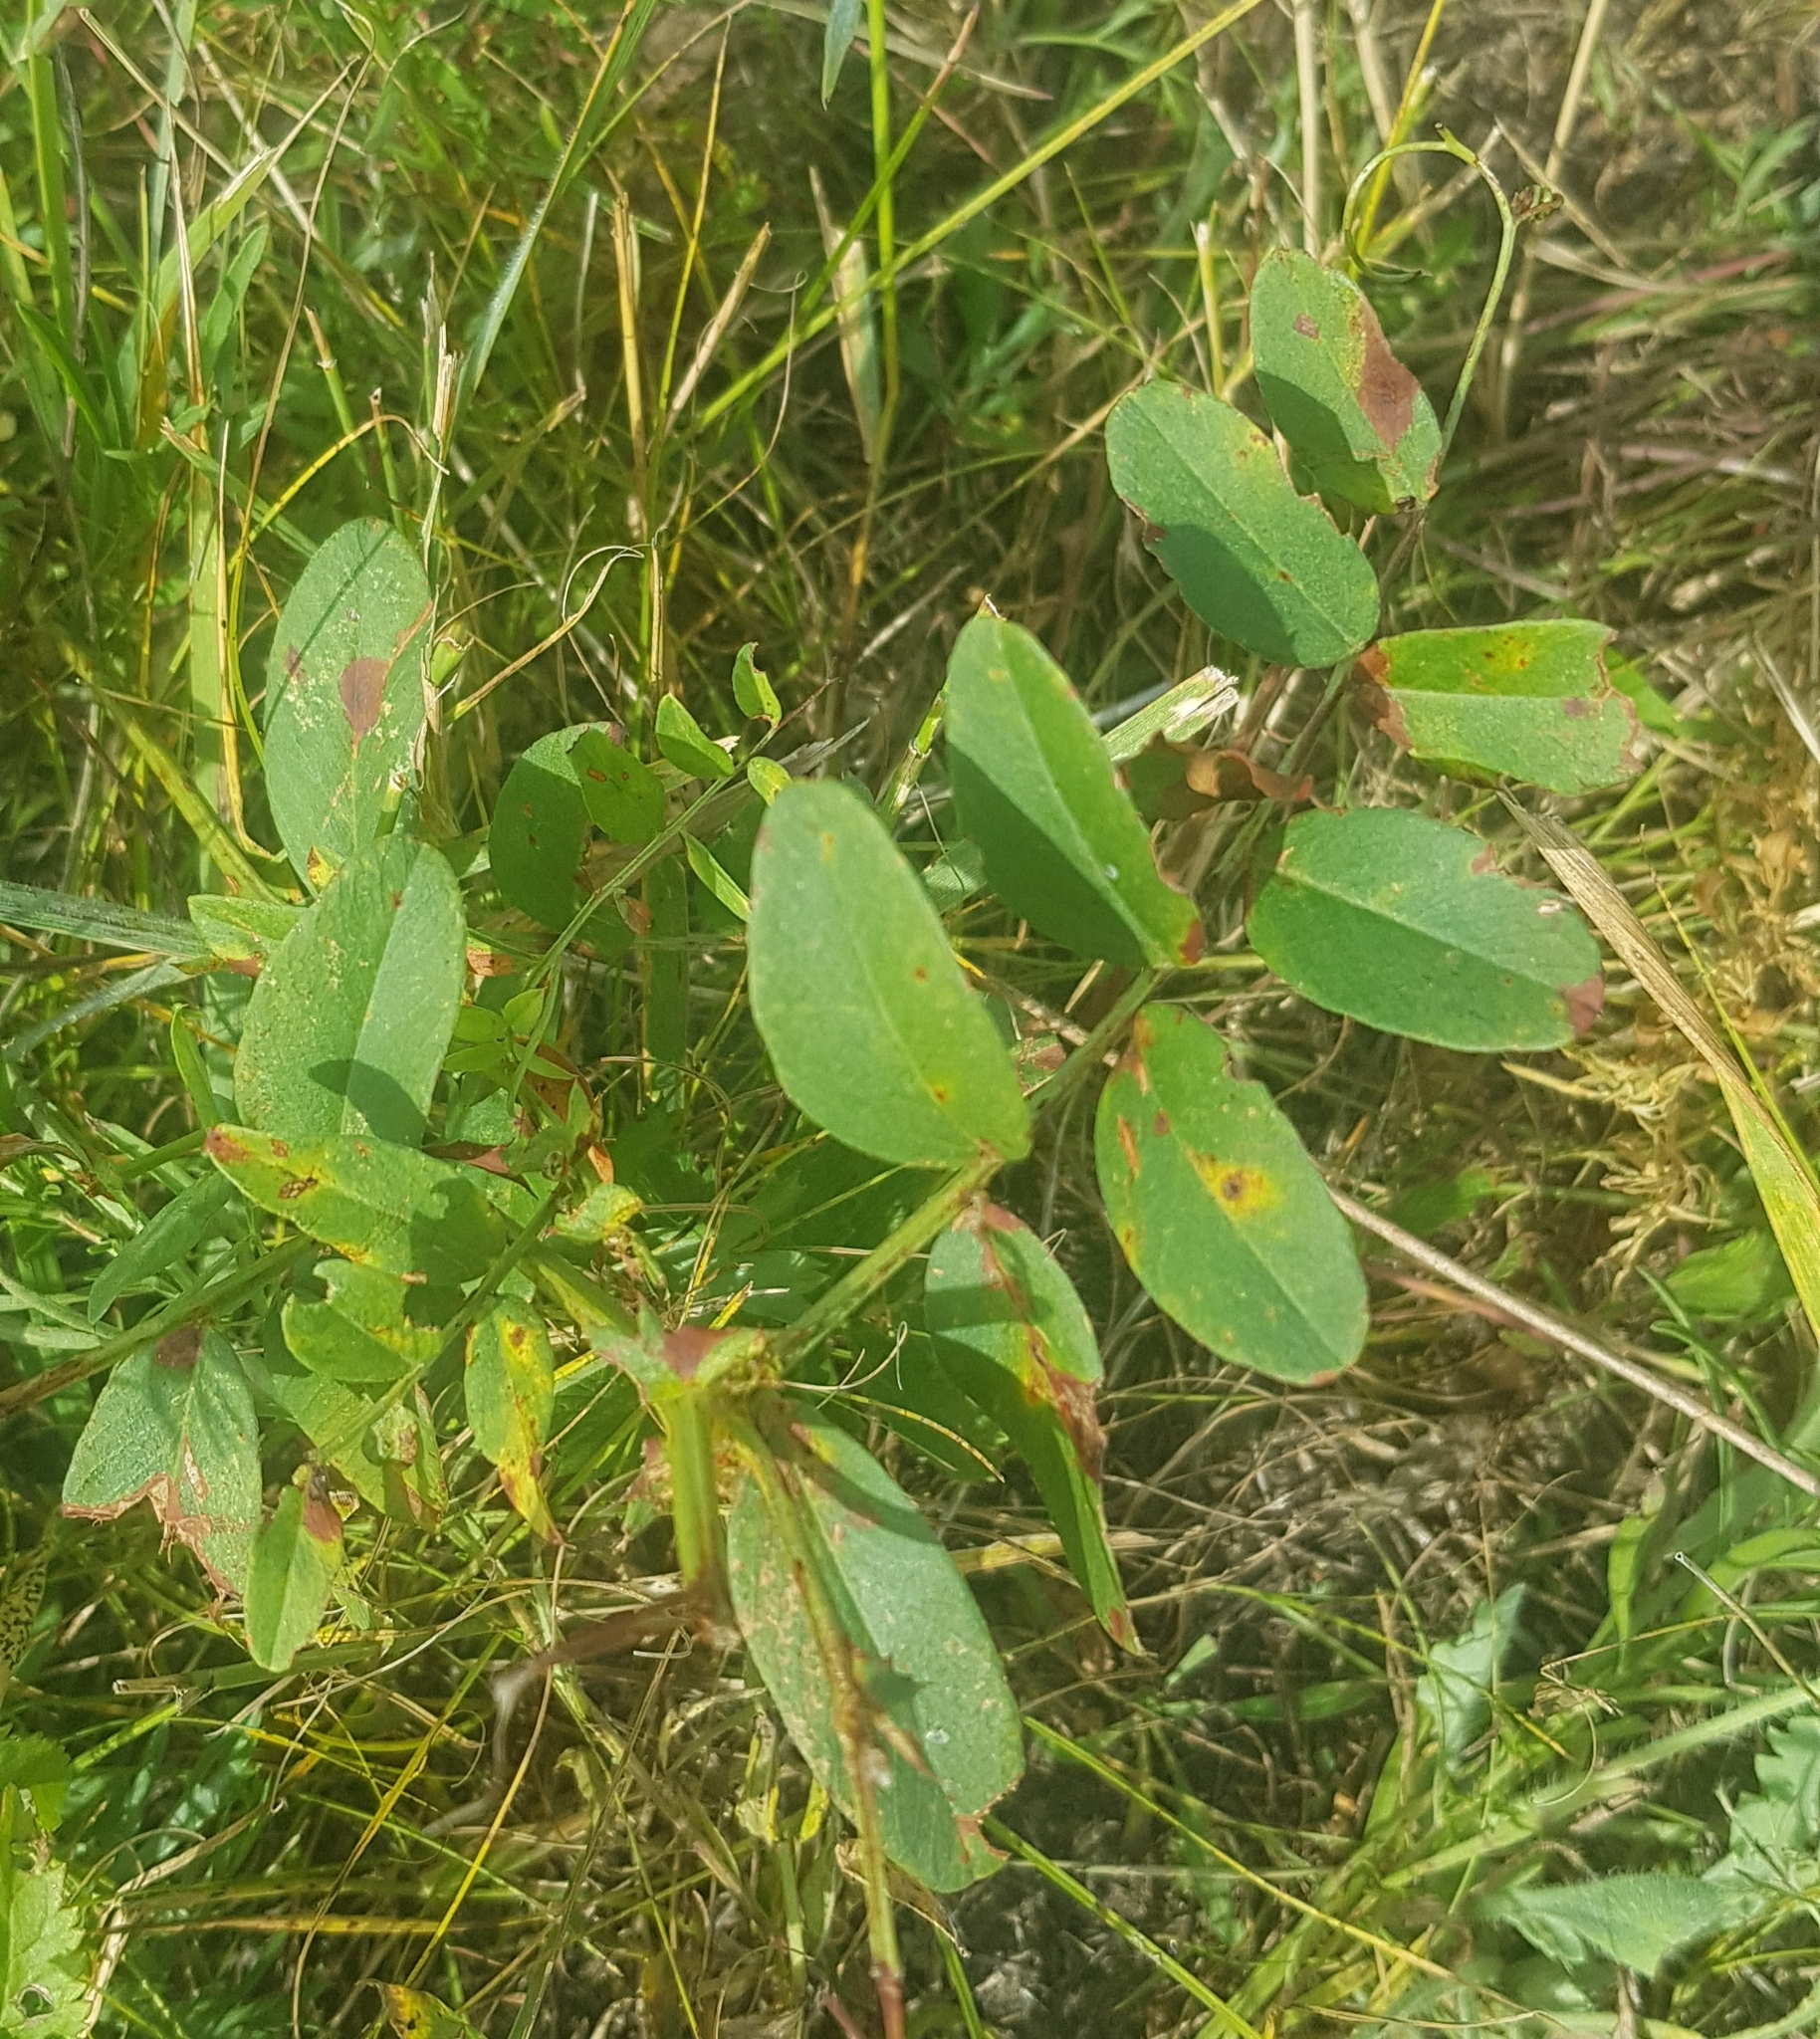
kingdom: Plantae
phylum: Tracheophyta
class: Magnoliopsida
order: Fabales
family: Fabaceae
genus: Lathyrus
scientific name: Lathyrus pisiformis
